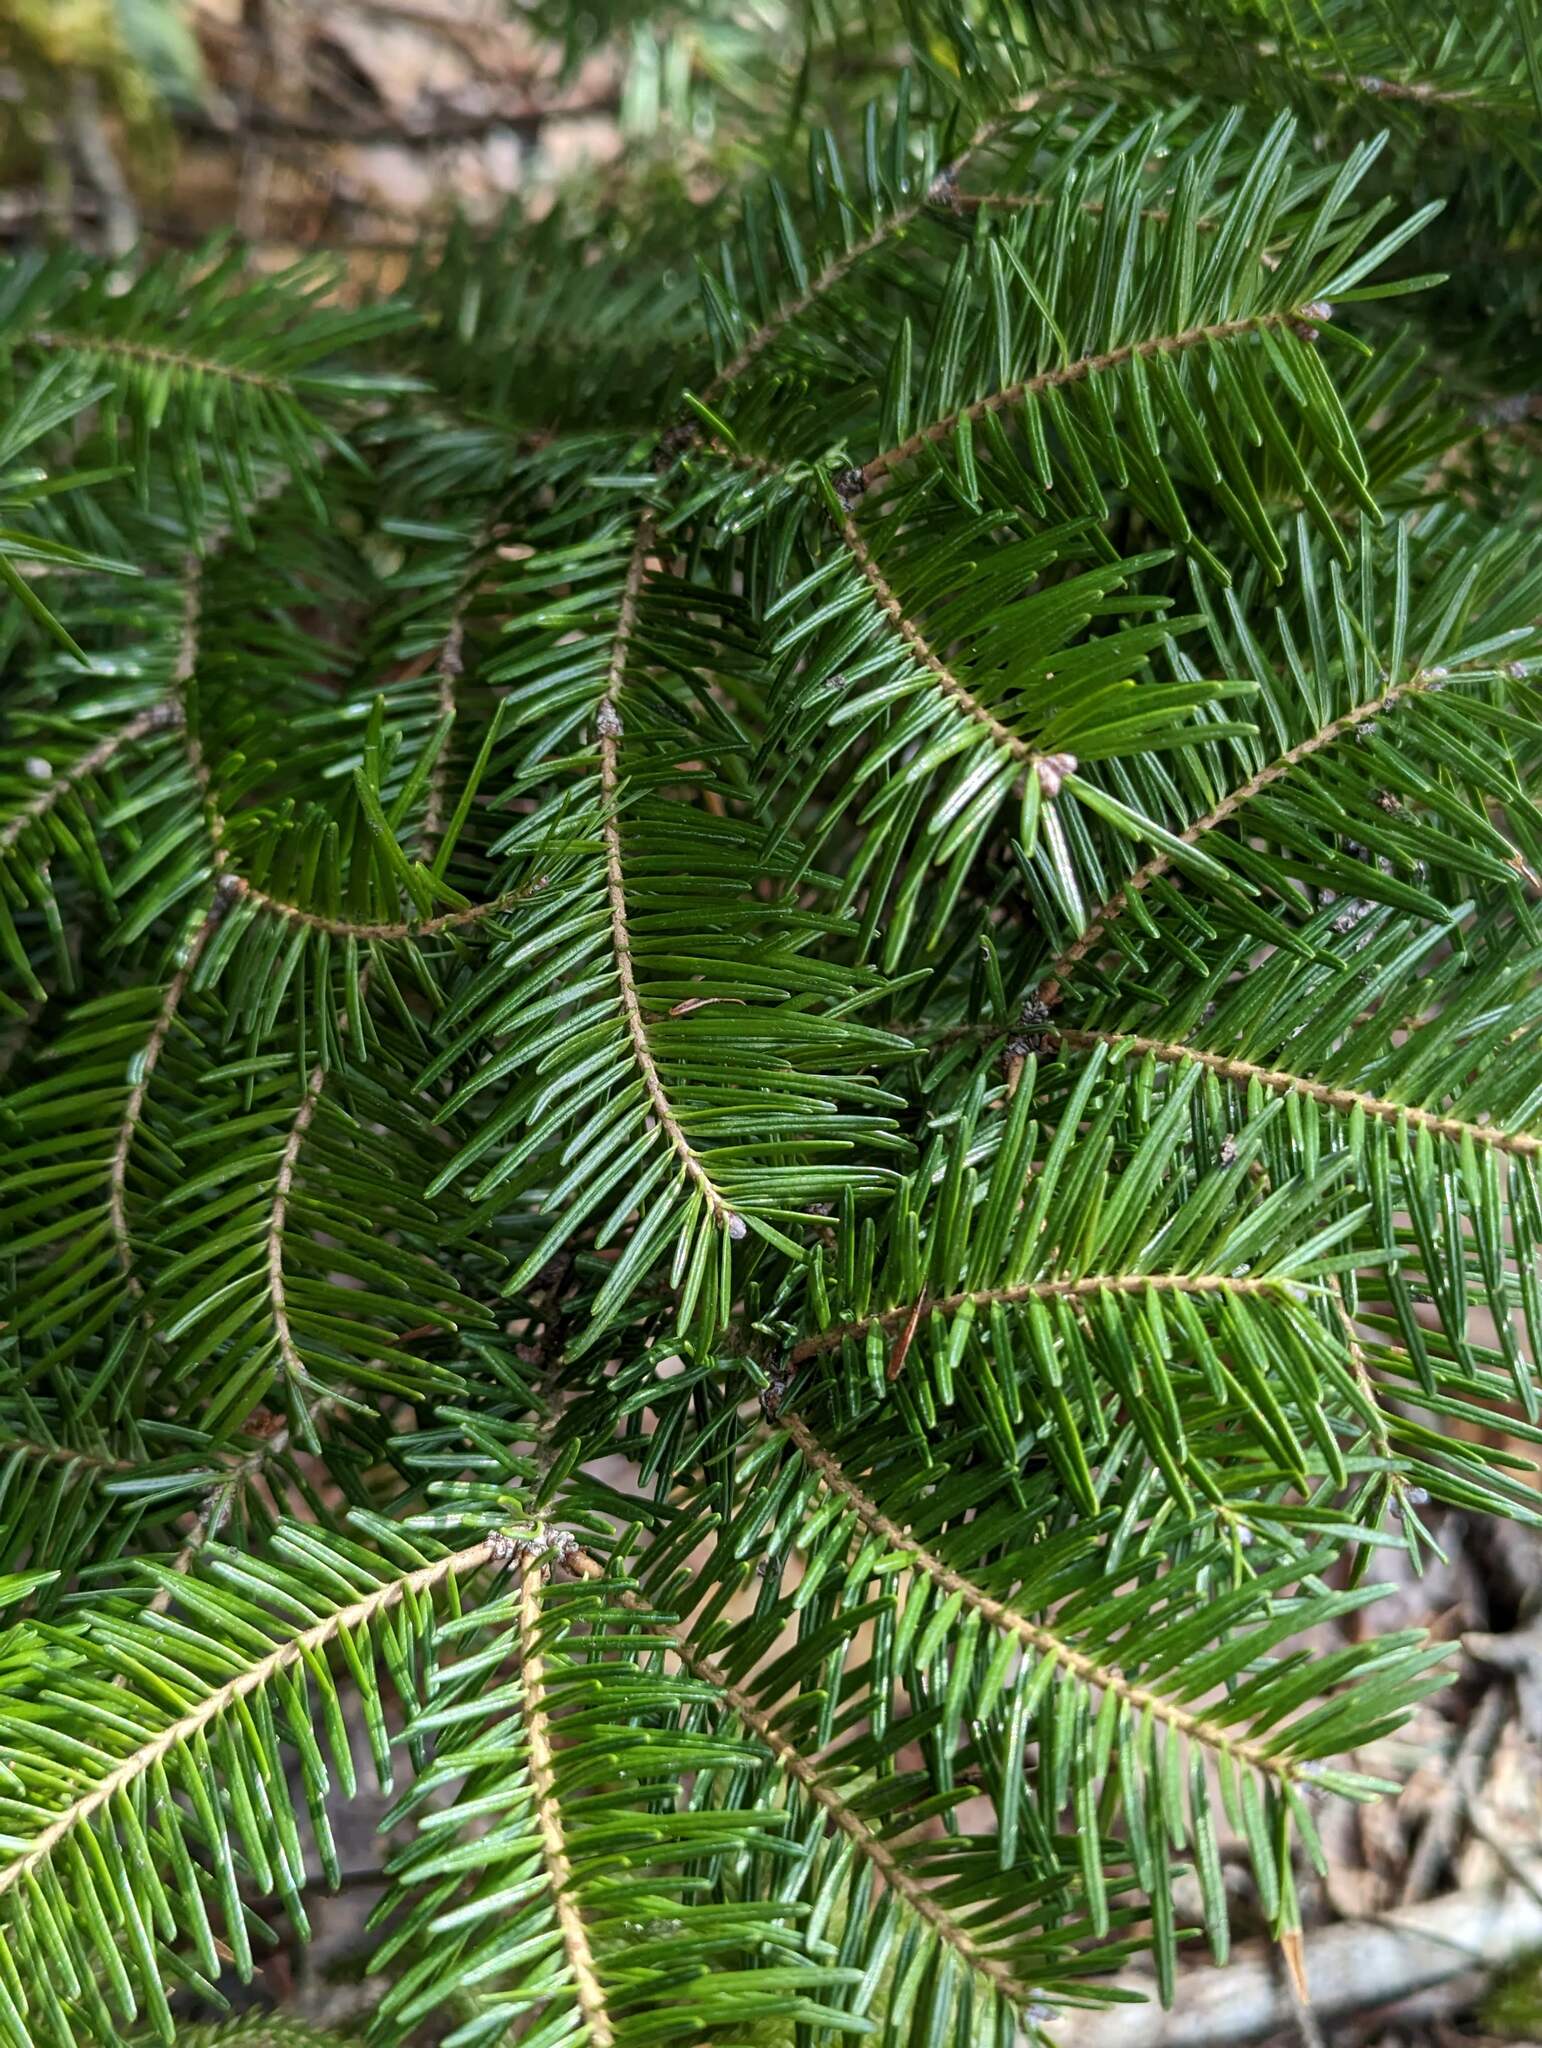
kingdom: Plantae
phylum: Tracheophyta
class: Pinopsida
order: Pinales
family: Pinaceae
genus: Abies
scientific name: Abies balsamea
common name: Balsam fir
